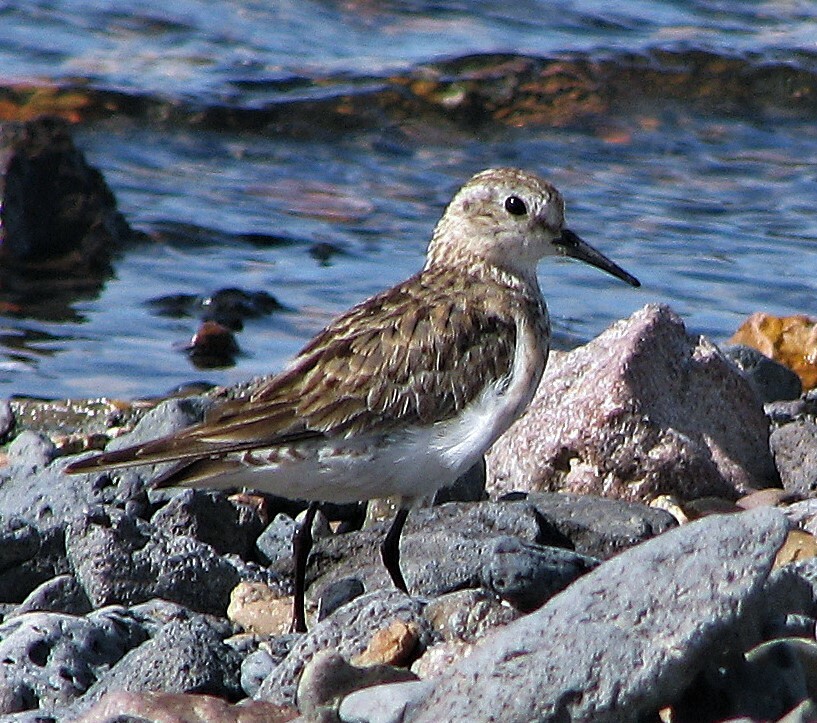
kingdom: Animalia
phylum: Chordata
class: Aves
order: Charadriiformes
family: Scolopacidae
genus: Calidris
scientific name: Calidris bairdii
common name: Baird's sandpiper
